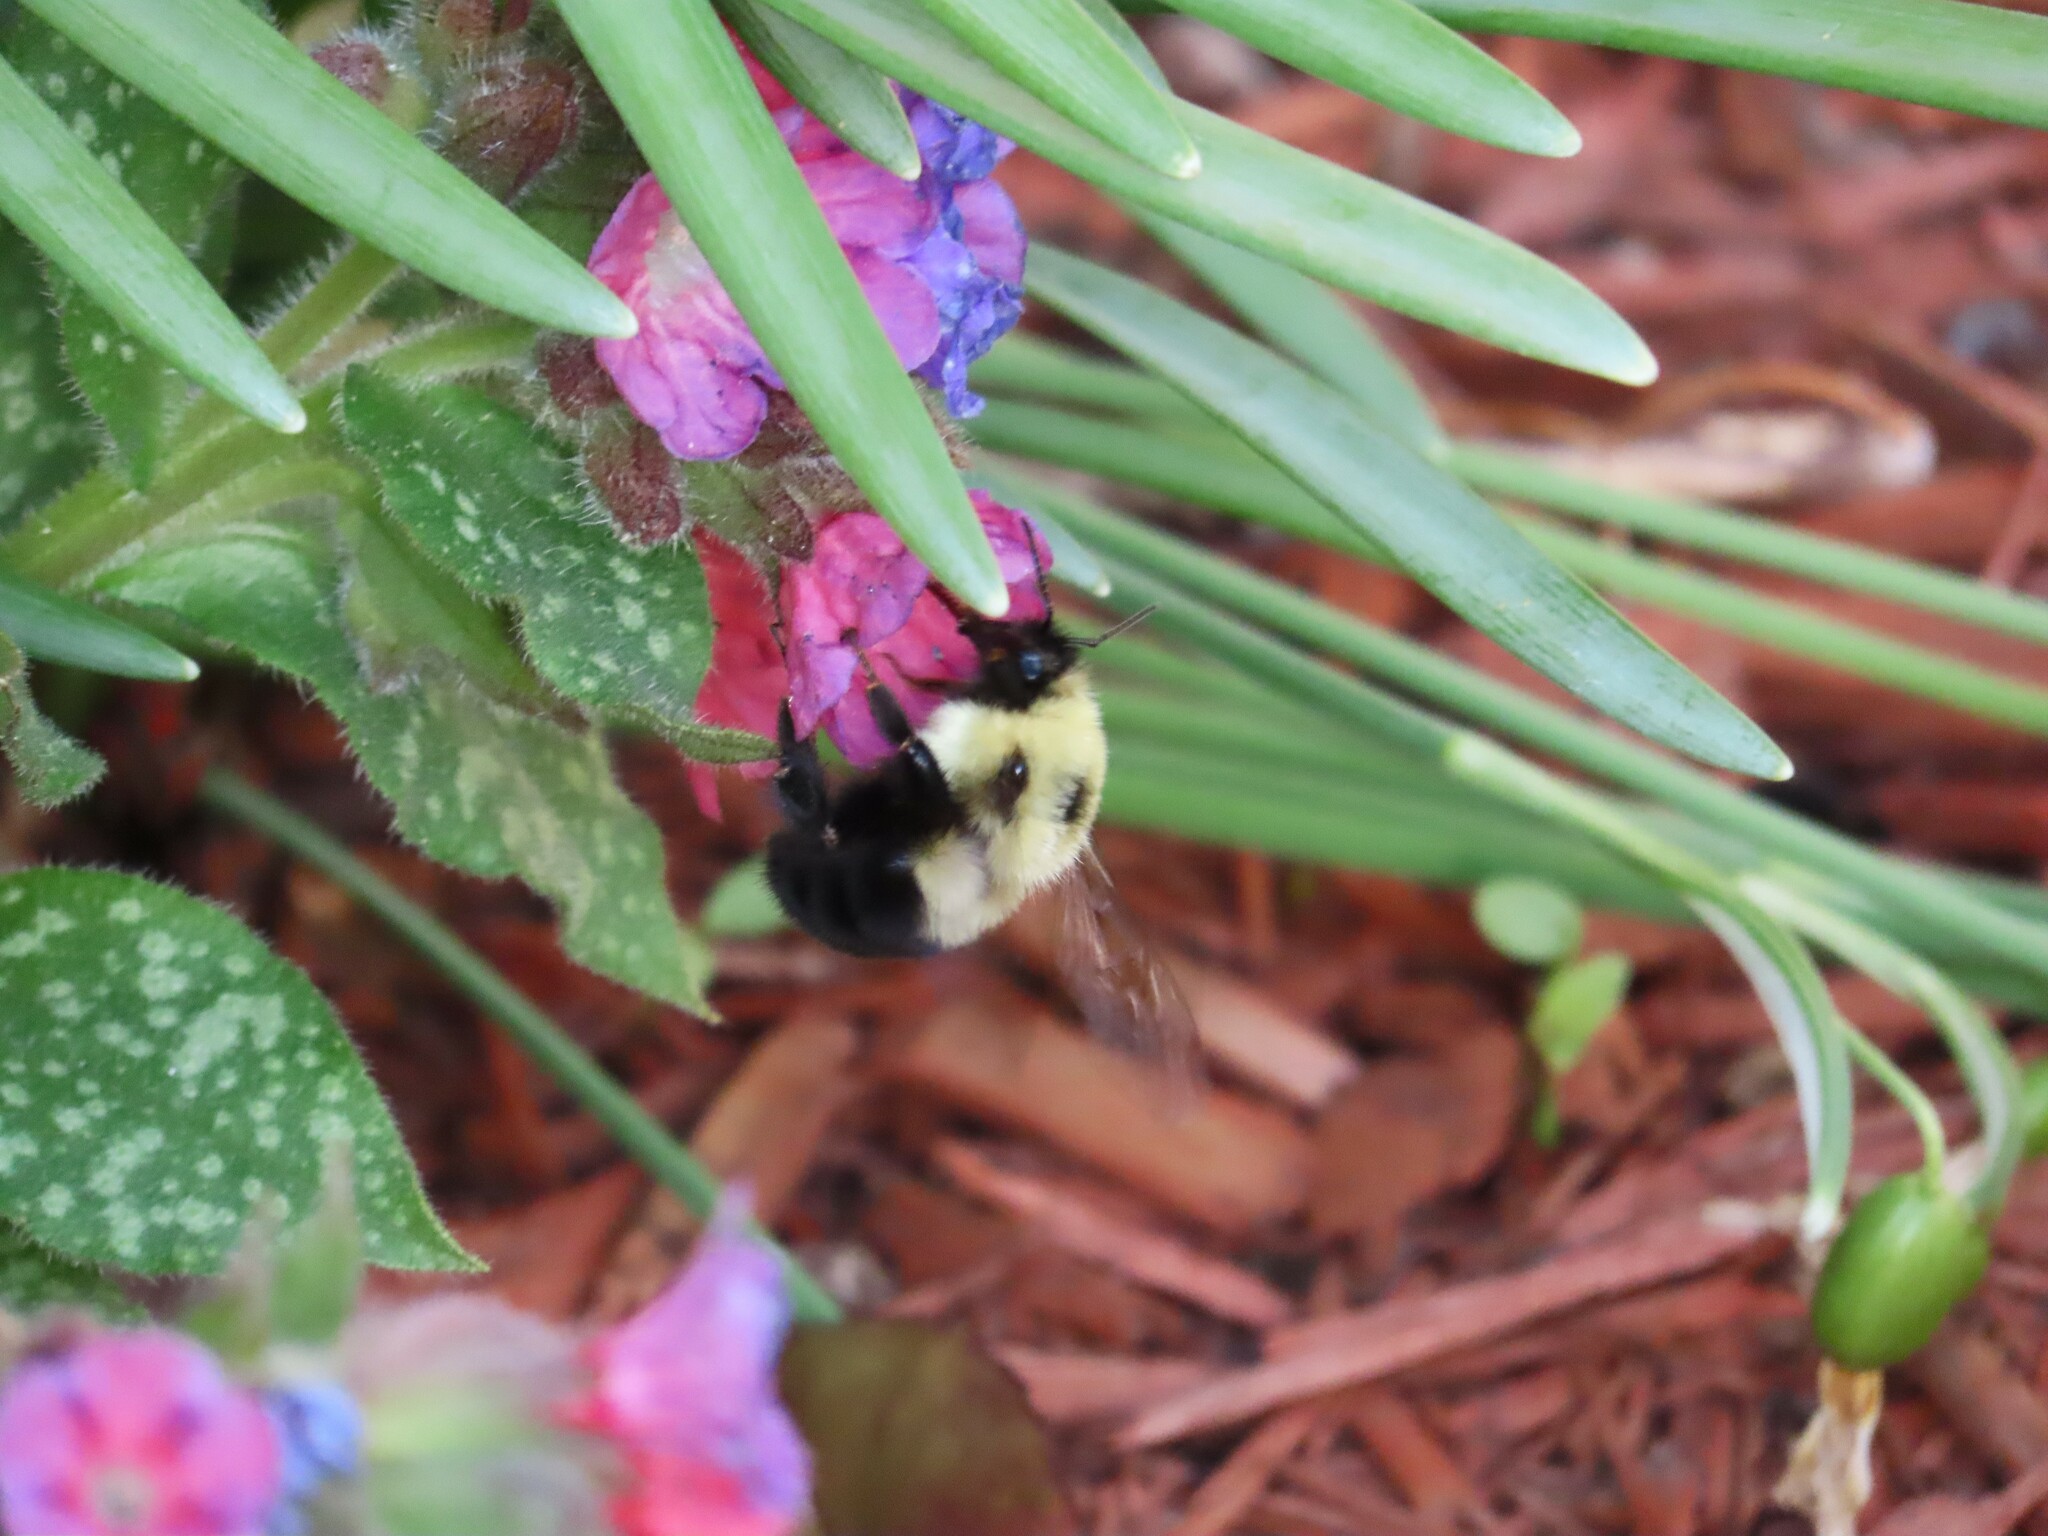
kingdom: Animalia
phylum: Arthropoda
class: Insecta
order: Hymenoptera
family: Apidae
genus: Bombus
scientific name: Bombus bimaculatus
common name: Two-spotted bumble bee
